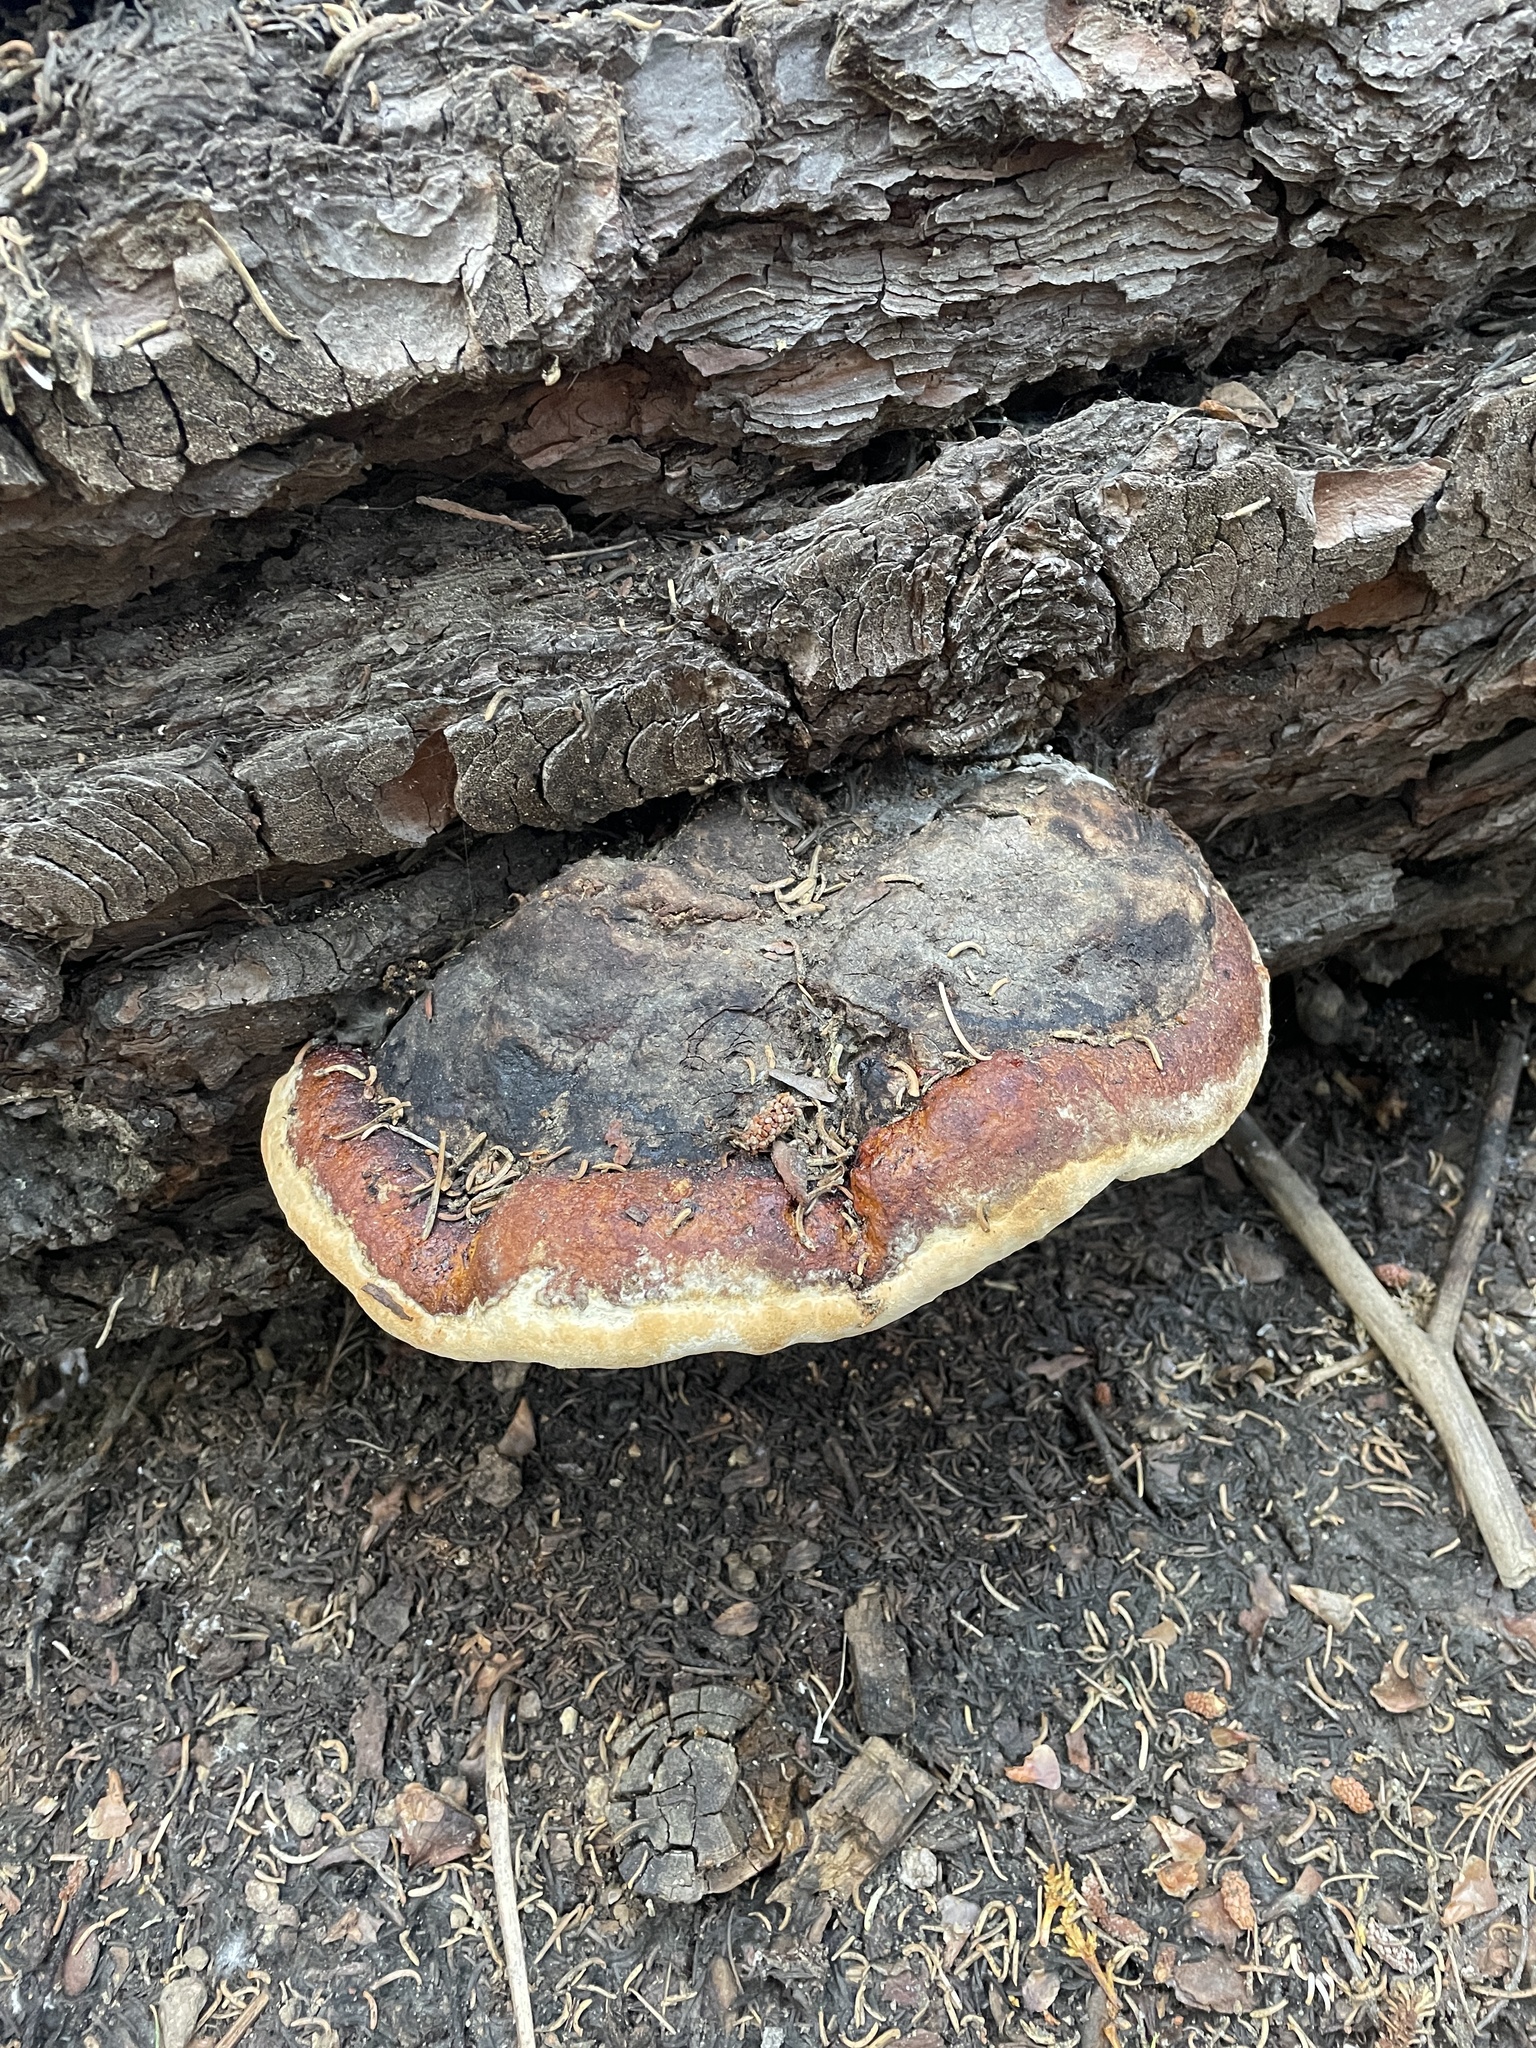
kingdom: Fungi
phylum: Basidiomycota
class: Agaricomycetes
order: Polyporales
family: Fomitopsidaceae
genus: Fomitopsis
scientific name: Fomitopsis mounceae
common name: Northern red belt
